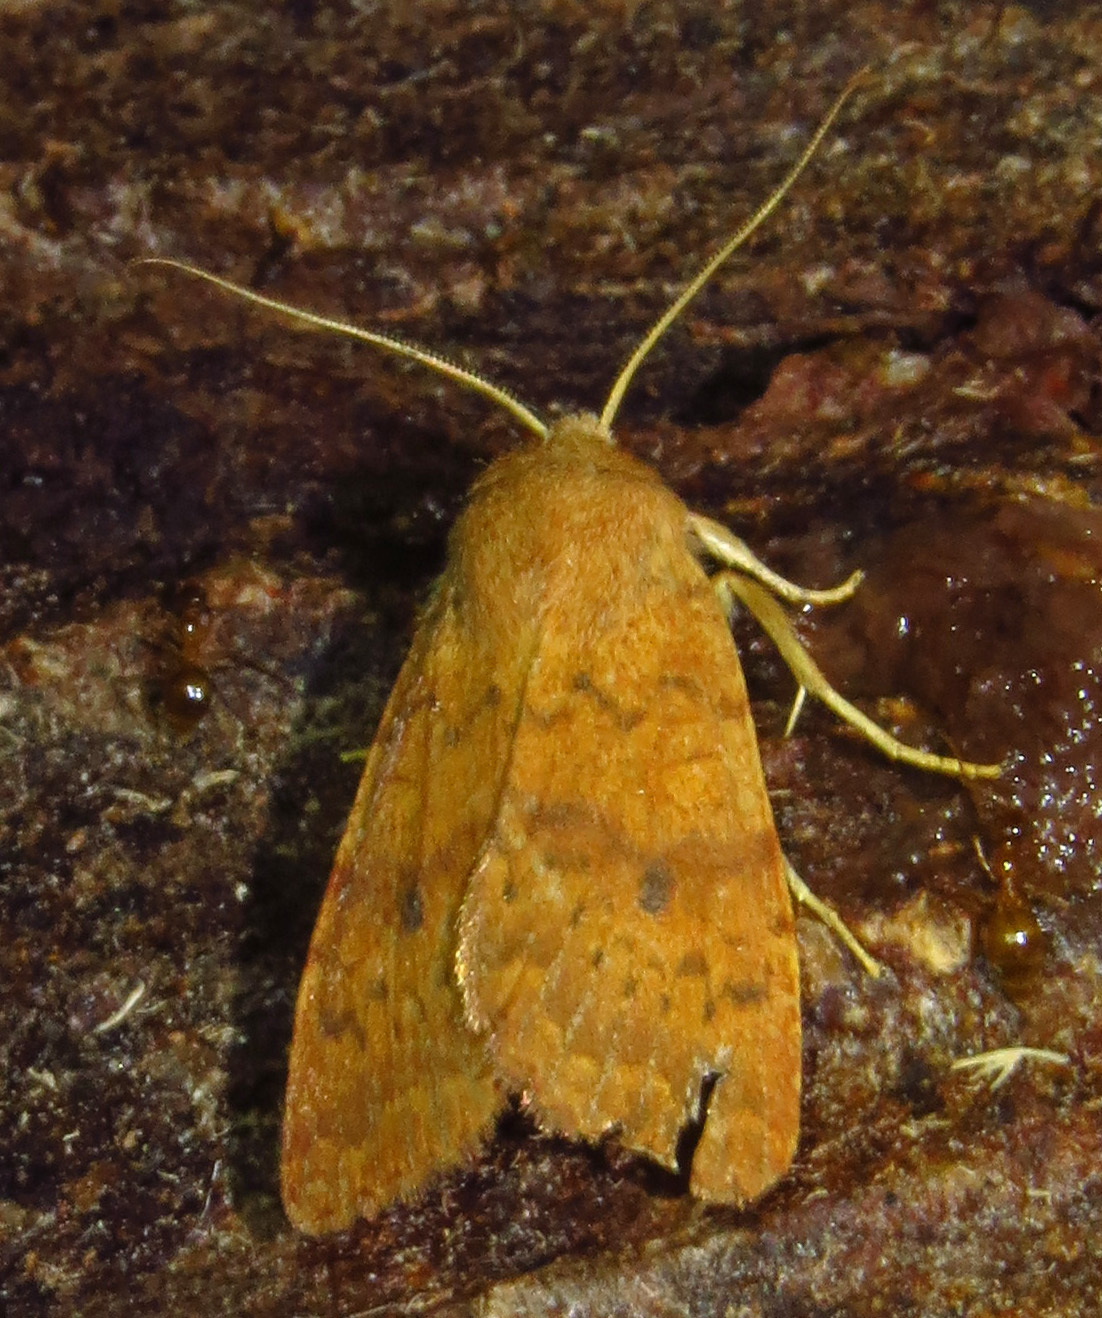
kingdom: Animalia
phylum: Arthropoda
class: Insecta
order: Lepidoptera
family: Noctuidae
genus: Agrochola
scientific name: Agrochola bicolorago
